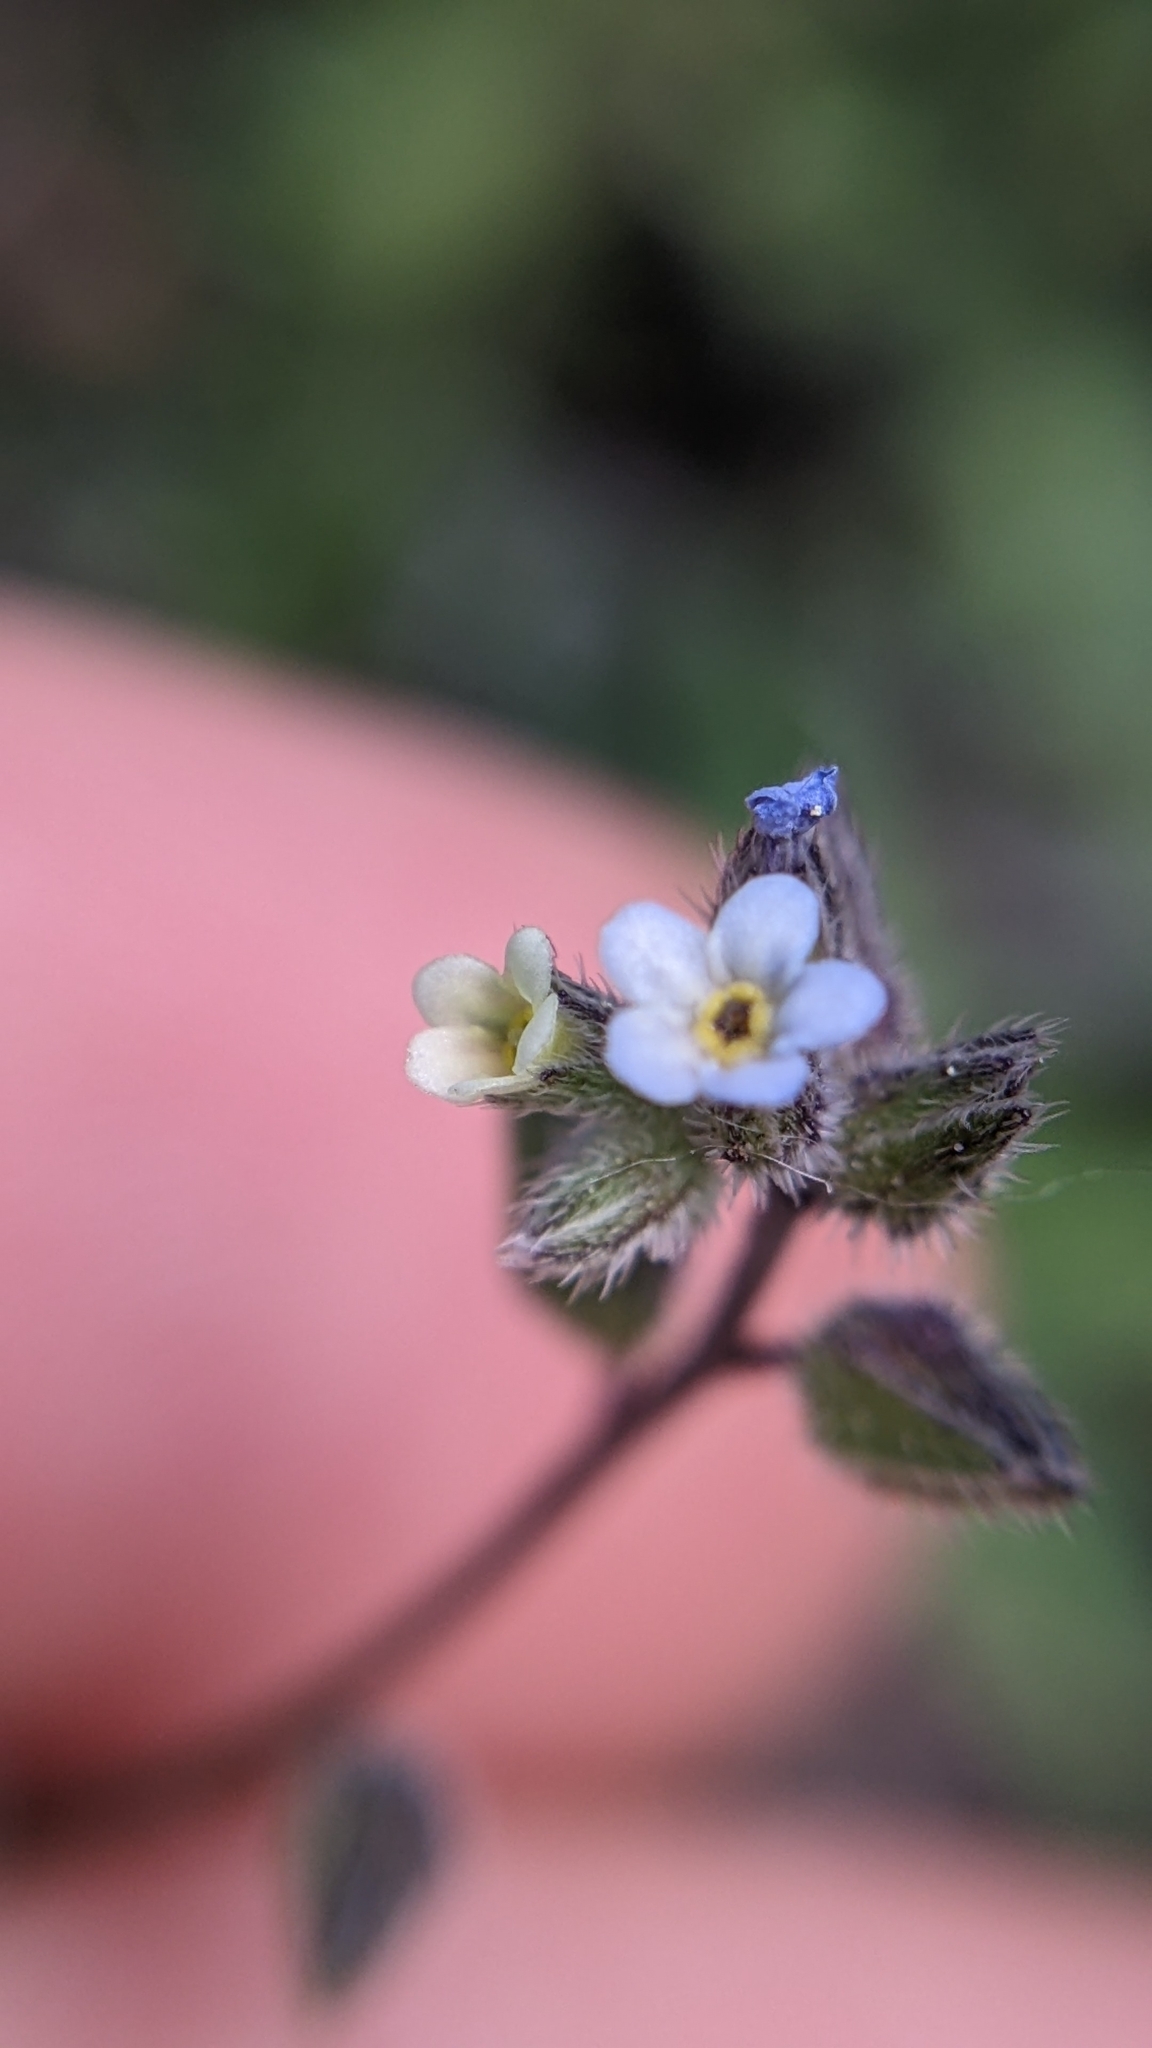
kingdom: Plantae
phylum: Tracheophyta
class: Magnoliopsida
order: Boraginales
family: Boraginaceae
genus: Myosotis
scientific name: Myosotis discolor
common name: Changing forget-me-not
